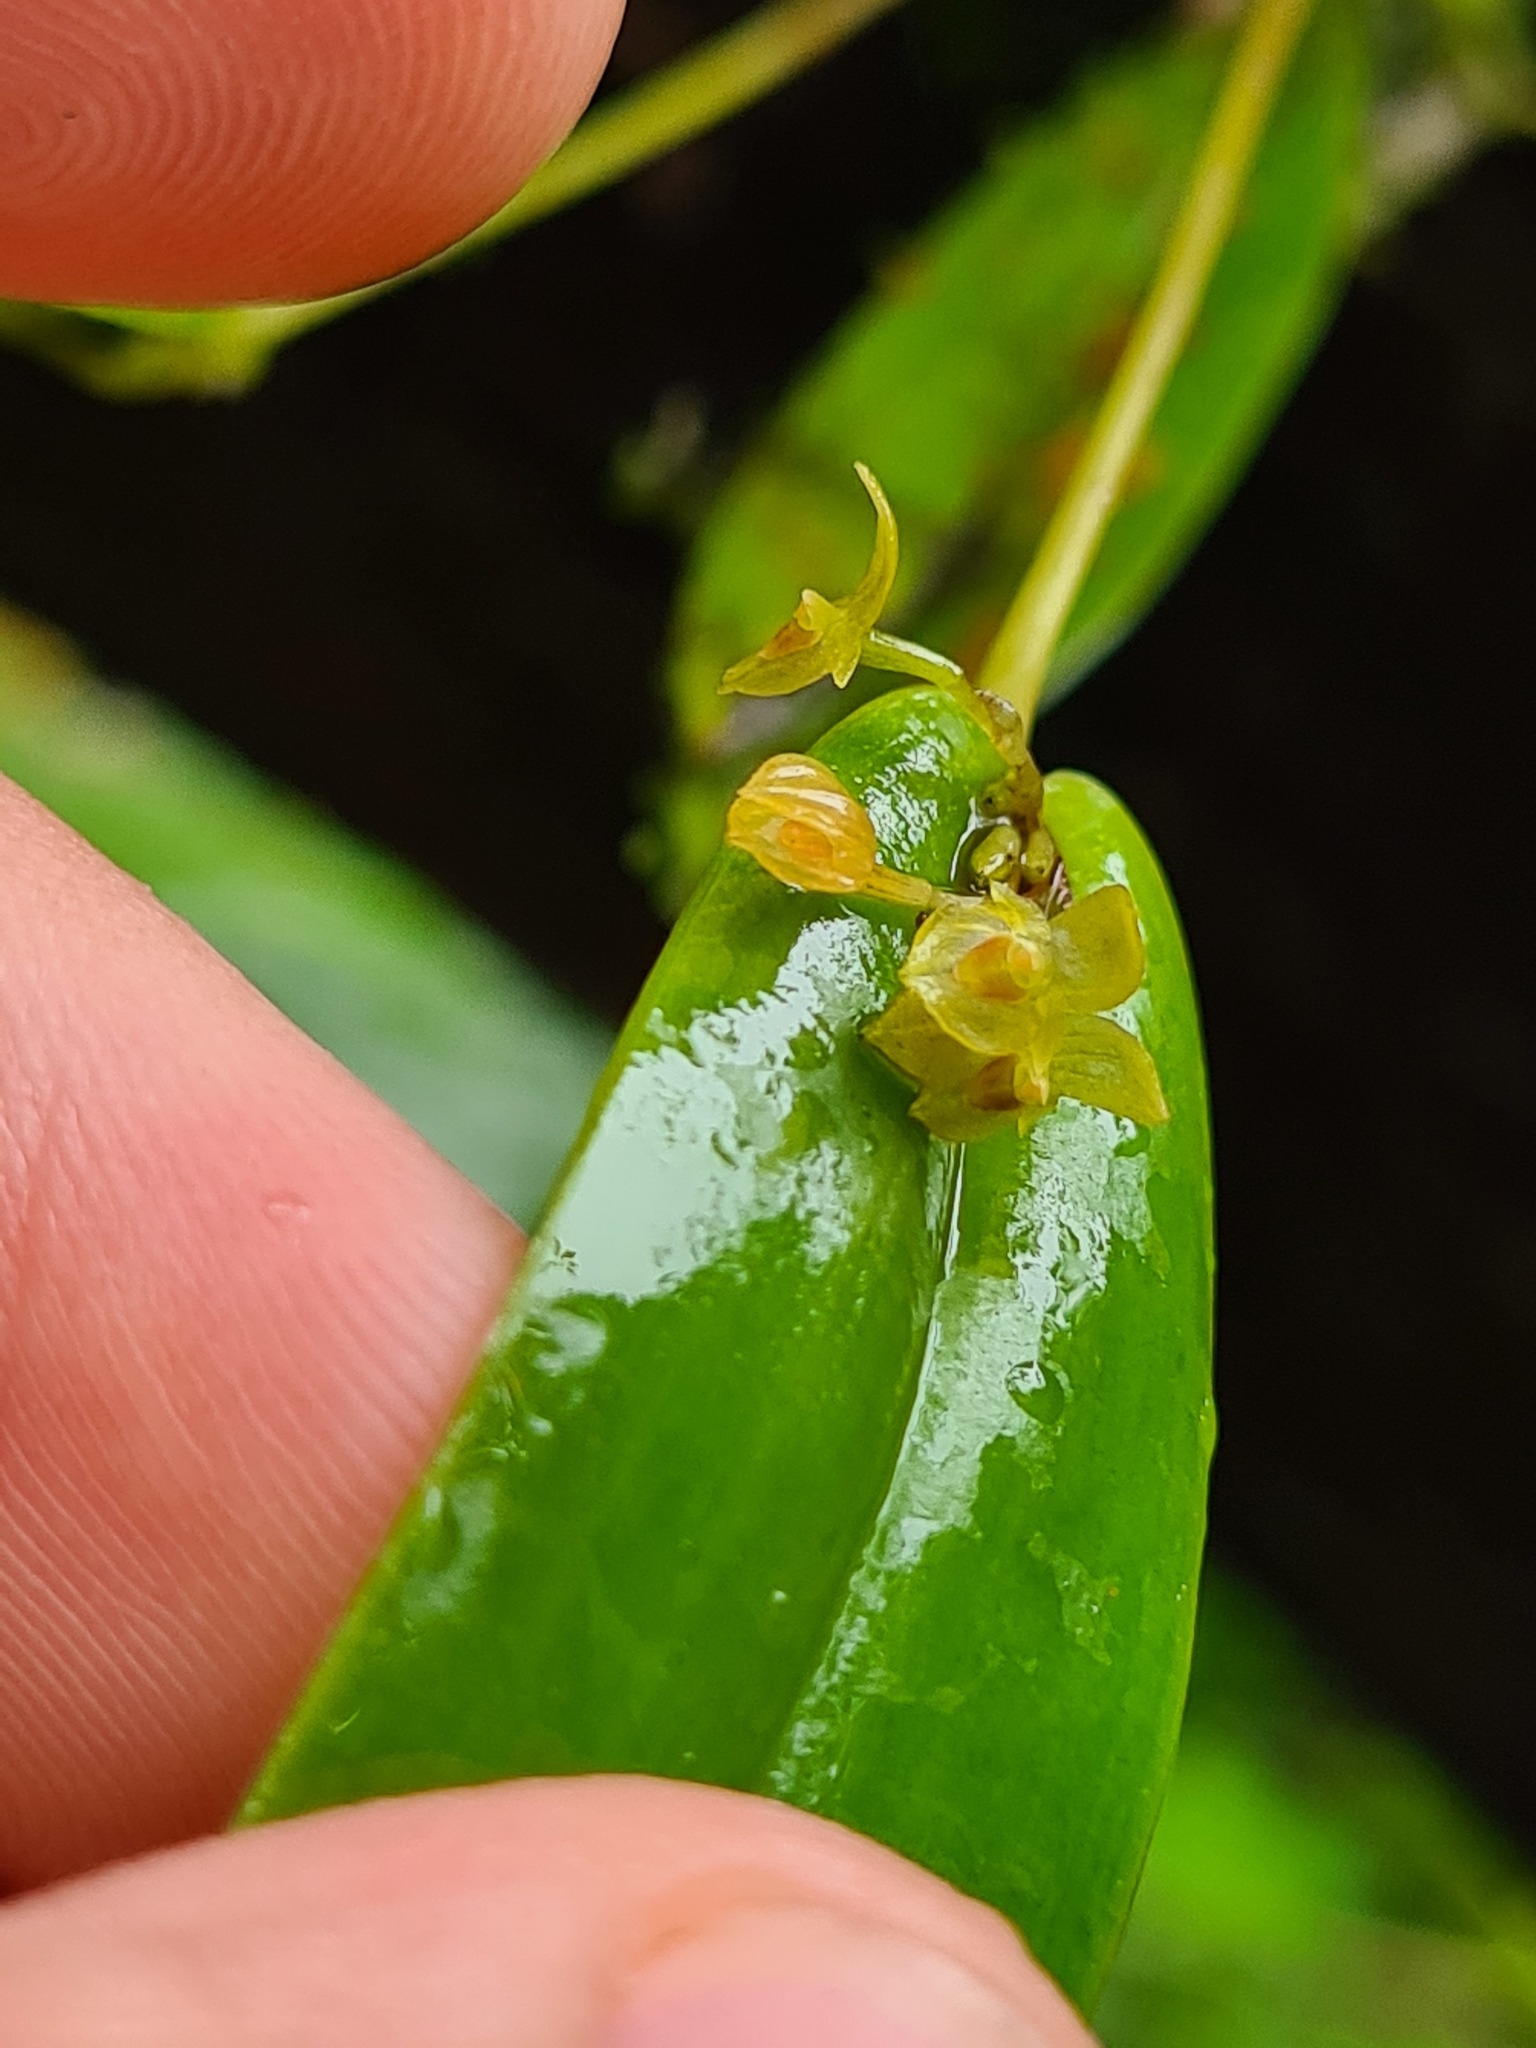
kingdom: Plantae
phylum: Tracheophyta
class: Liliopsida
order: Asparagales
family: Orchidaceae
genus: Pleurothallis
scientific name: Pleurothallis dibolia
